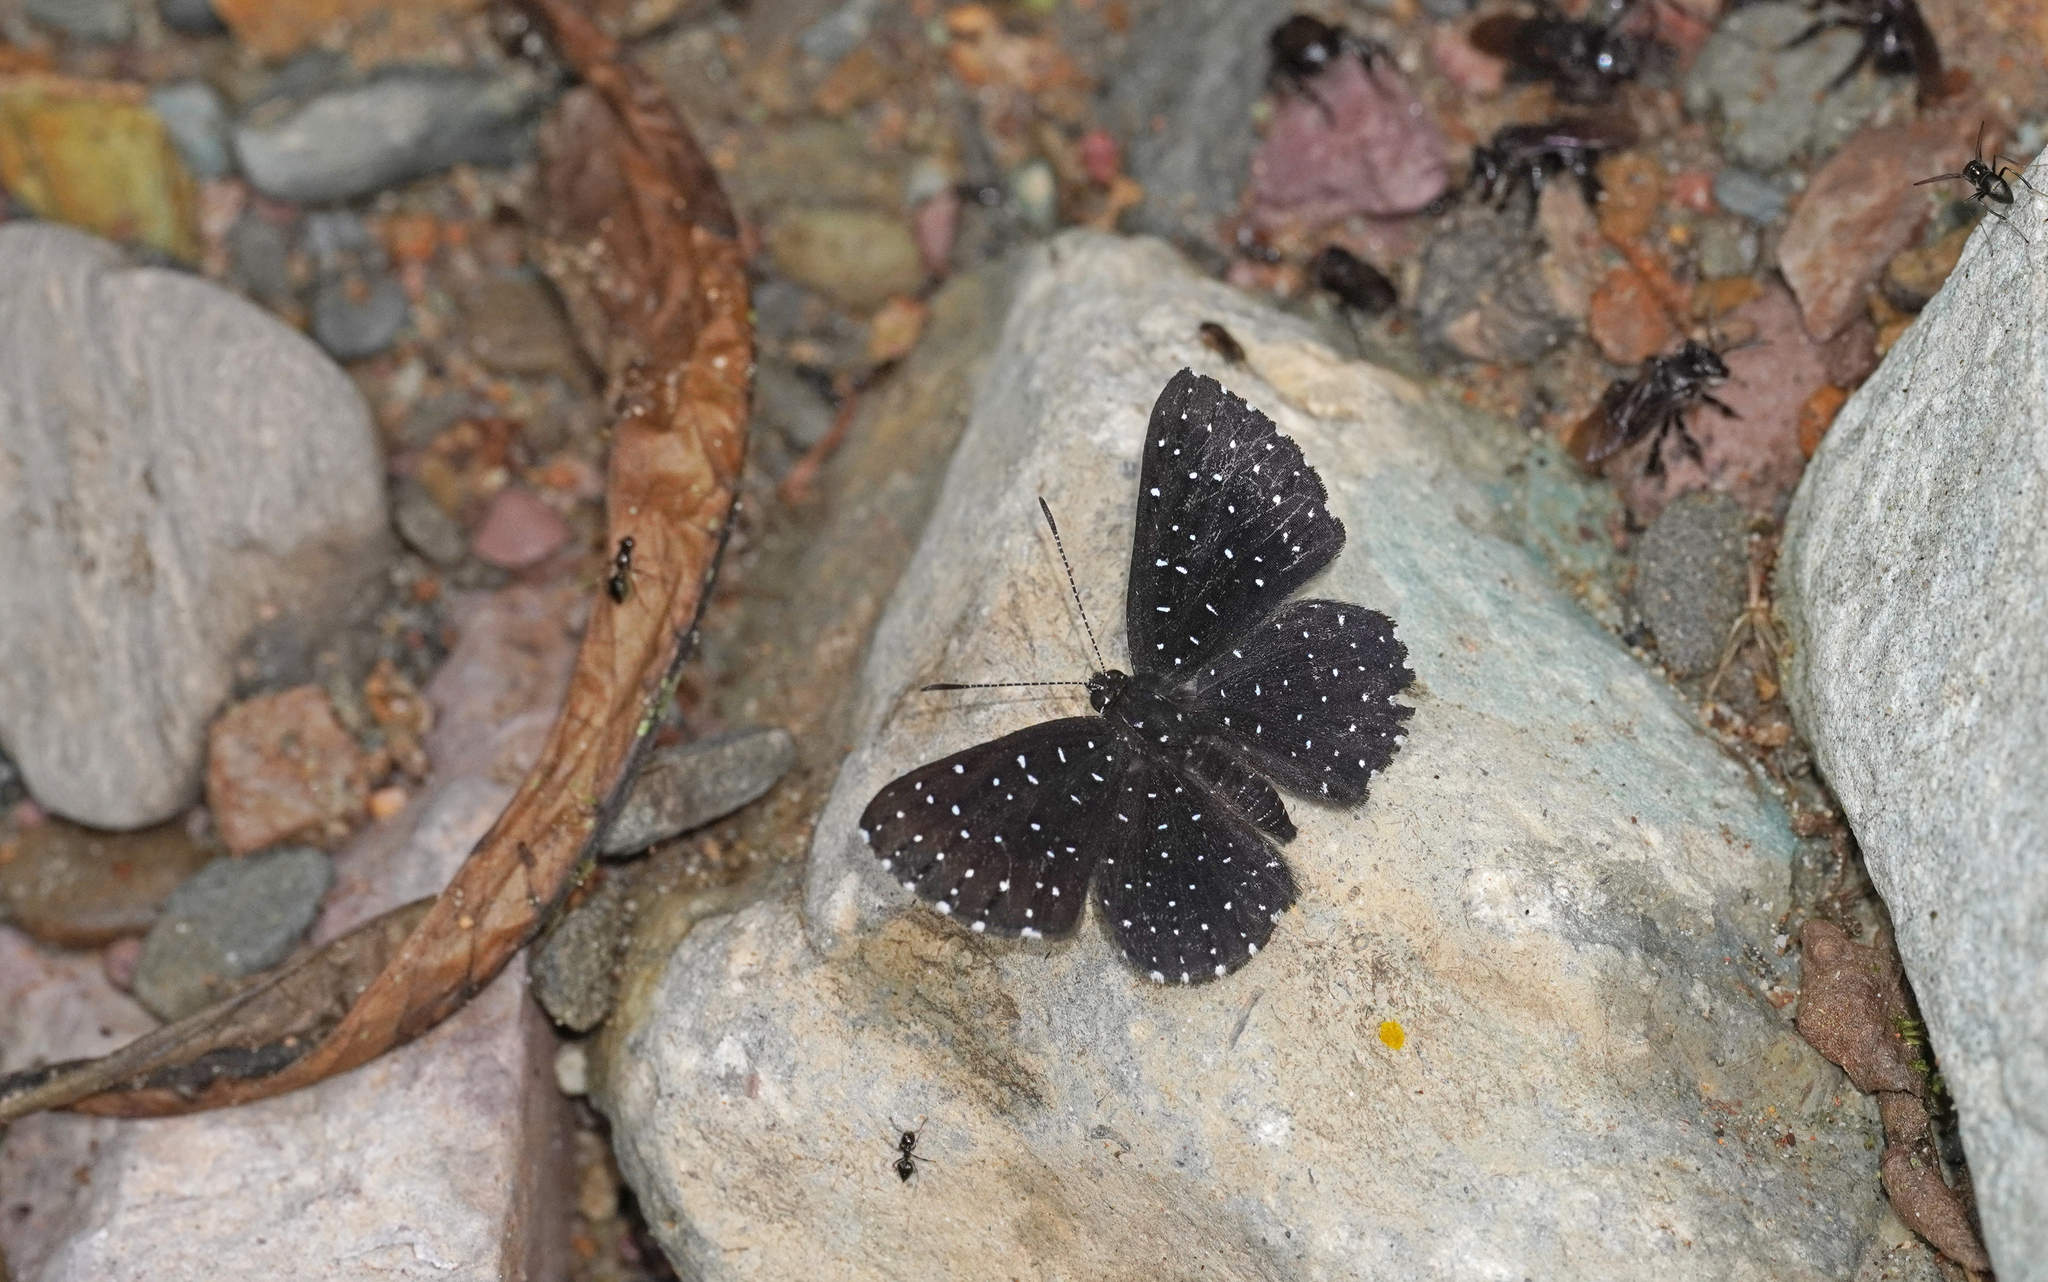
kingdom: Animalia
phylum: Arthropoda
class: Insecta
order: Lepidoptera
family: Riodinidae
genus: Echydna
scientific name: Echydna punctata
